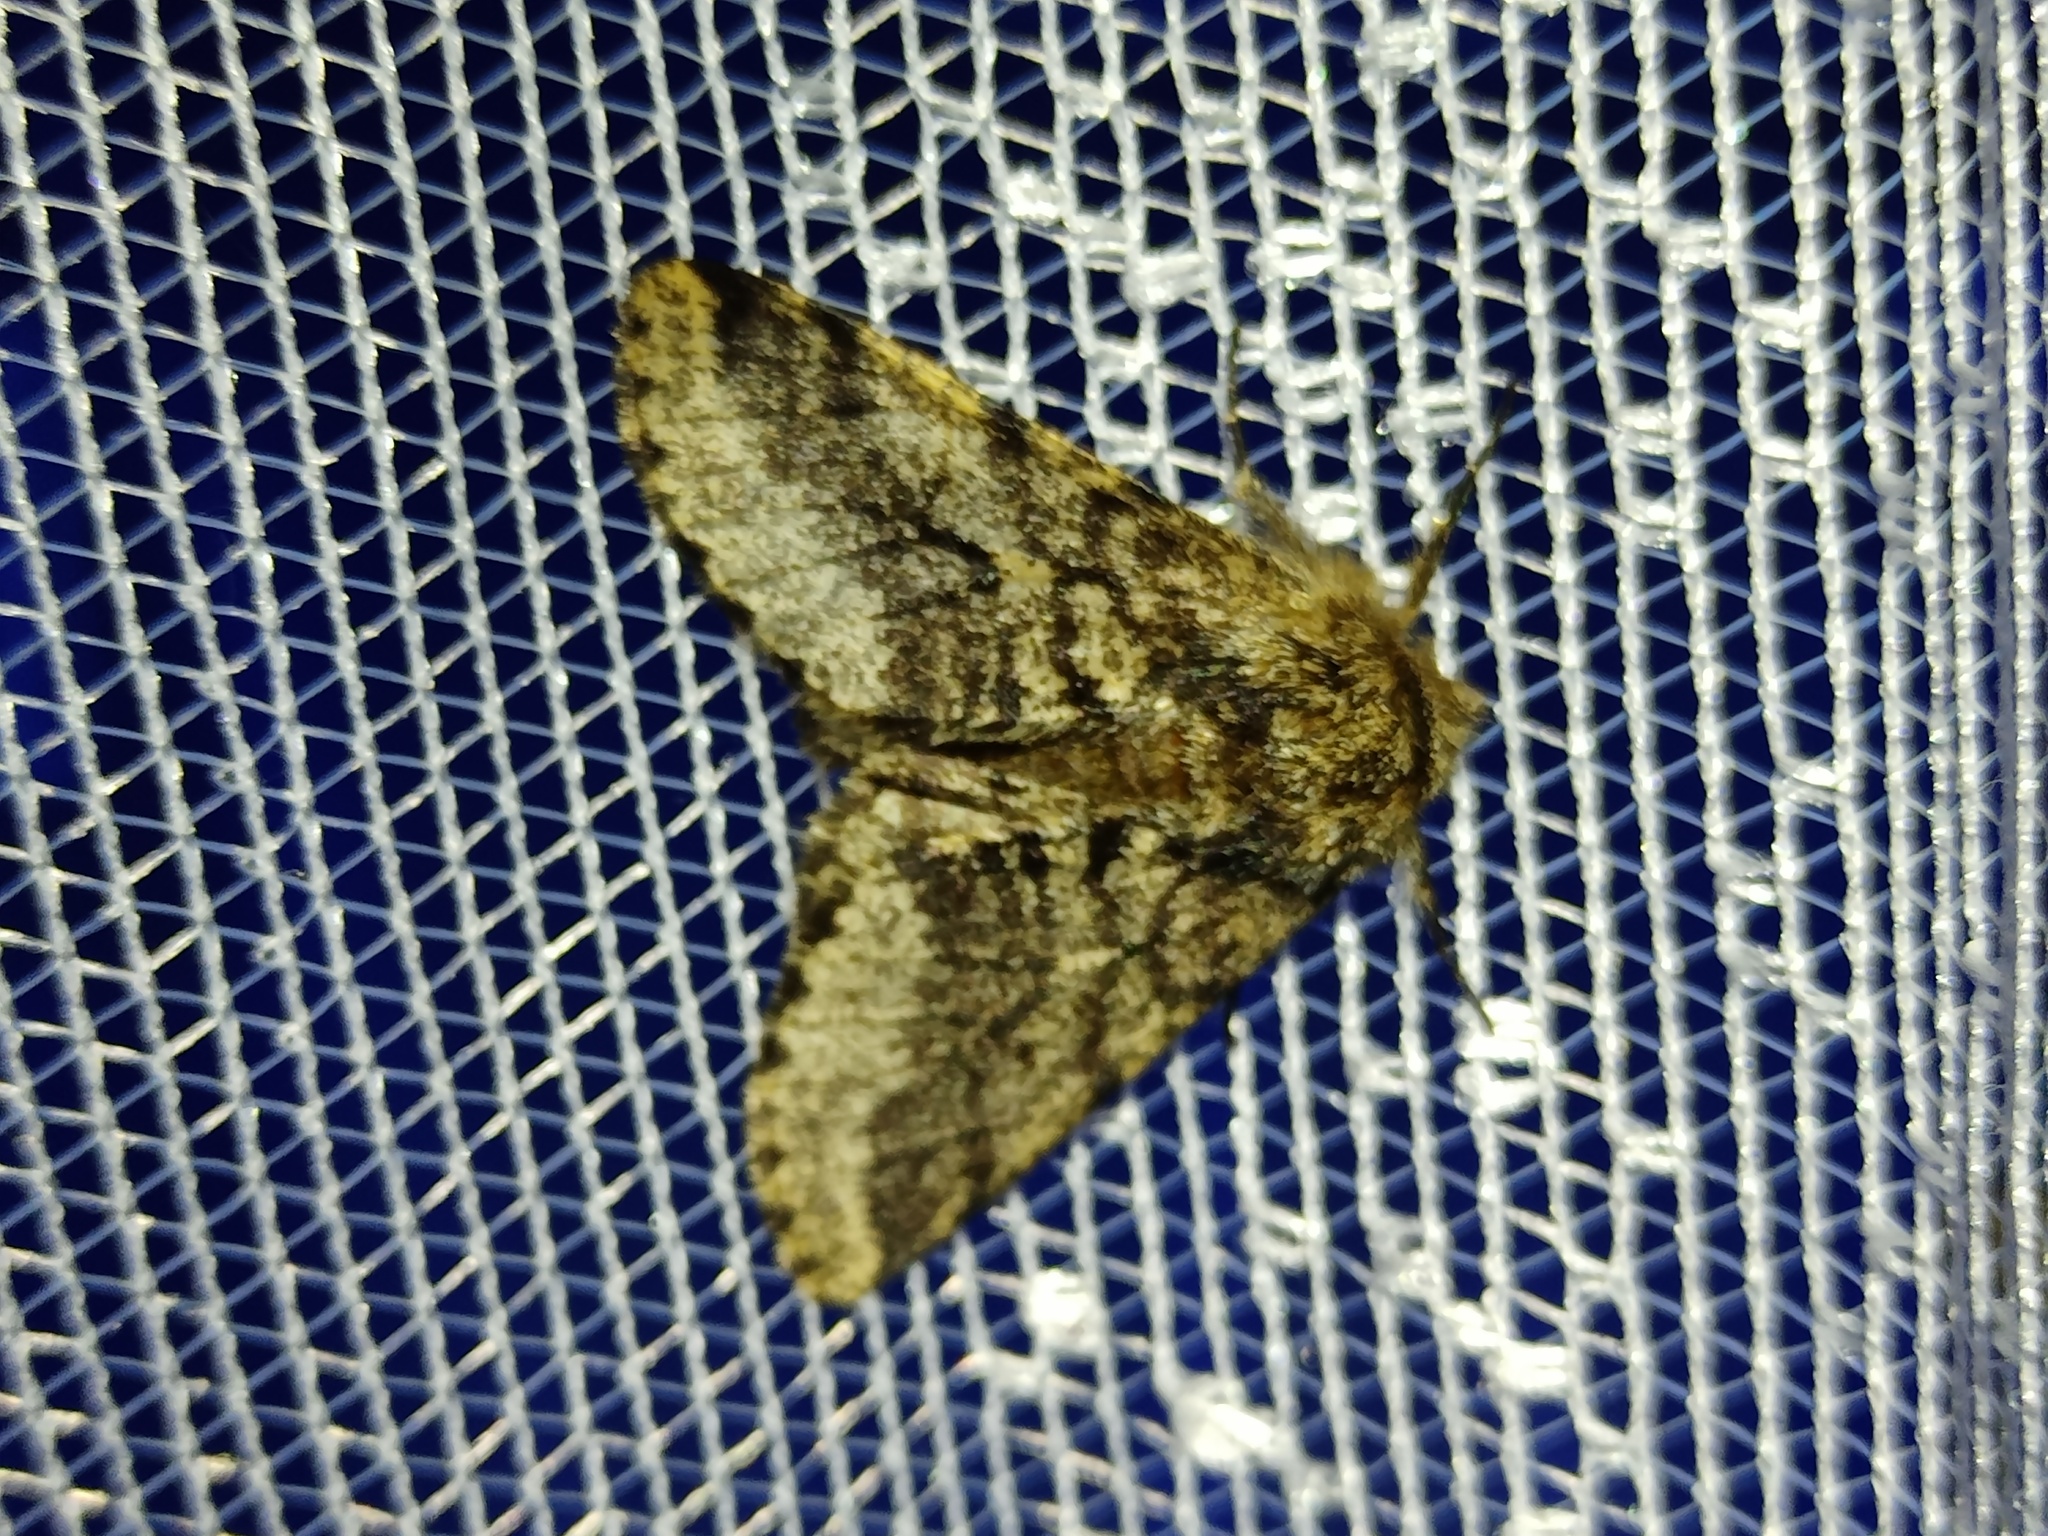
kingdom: Animalia
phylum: Arthropoda
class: Insecta
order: Lepidoptera
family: Geometridae
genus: Lycia
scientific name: Lycia hirtaria
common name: Brindled beauty
